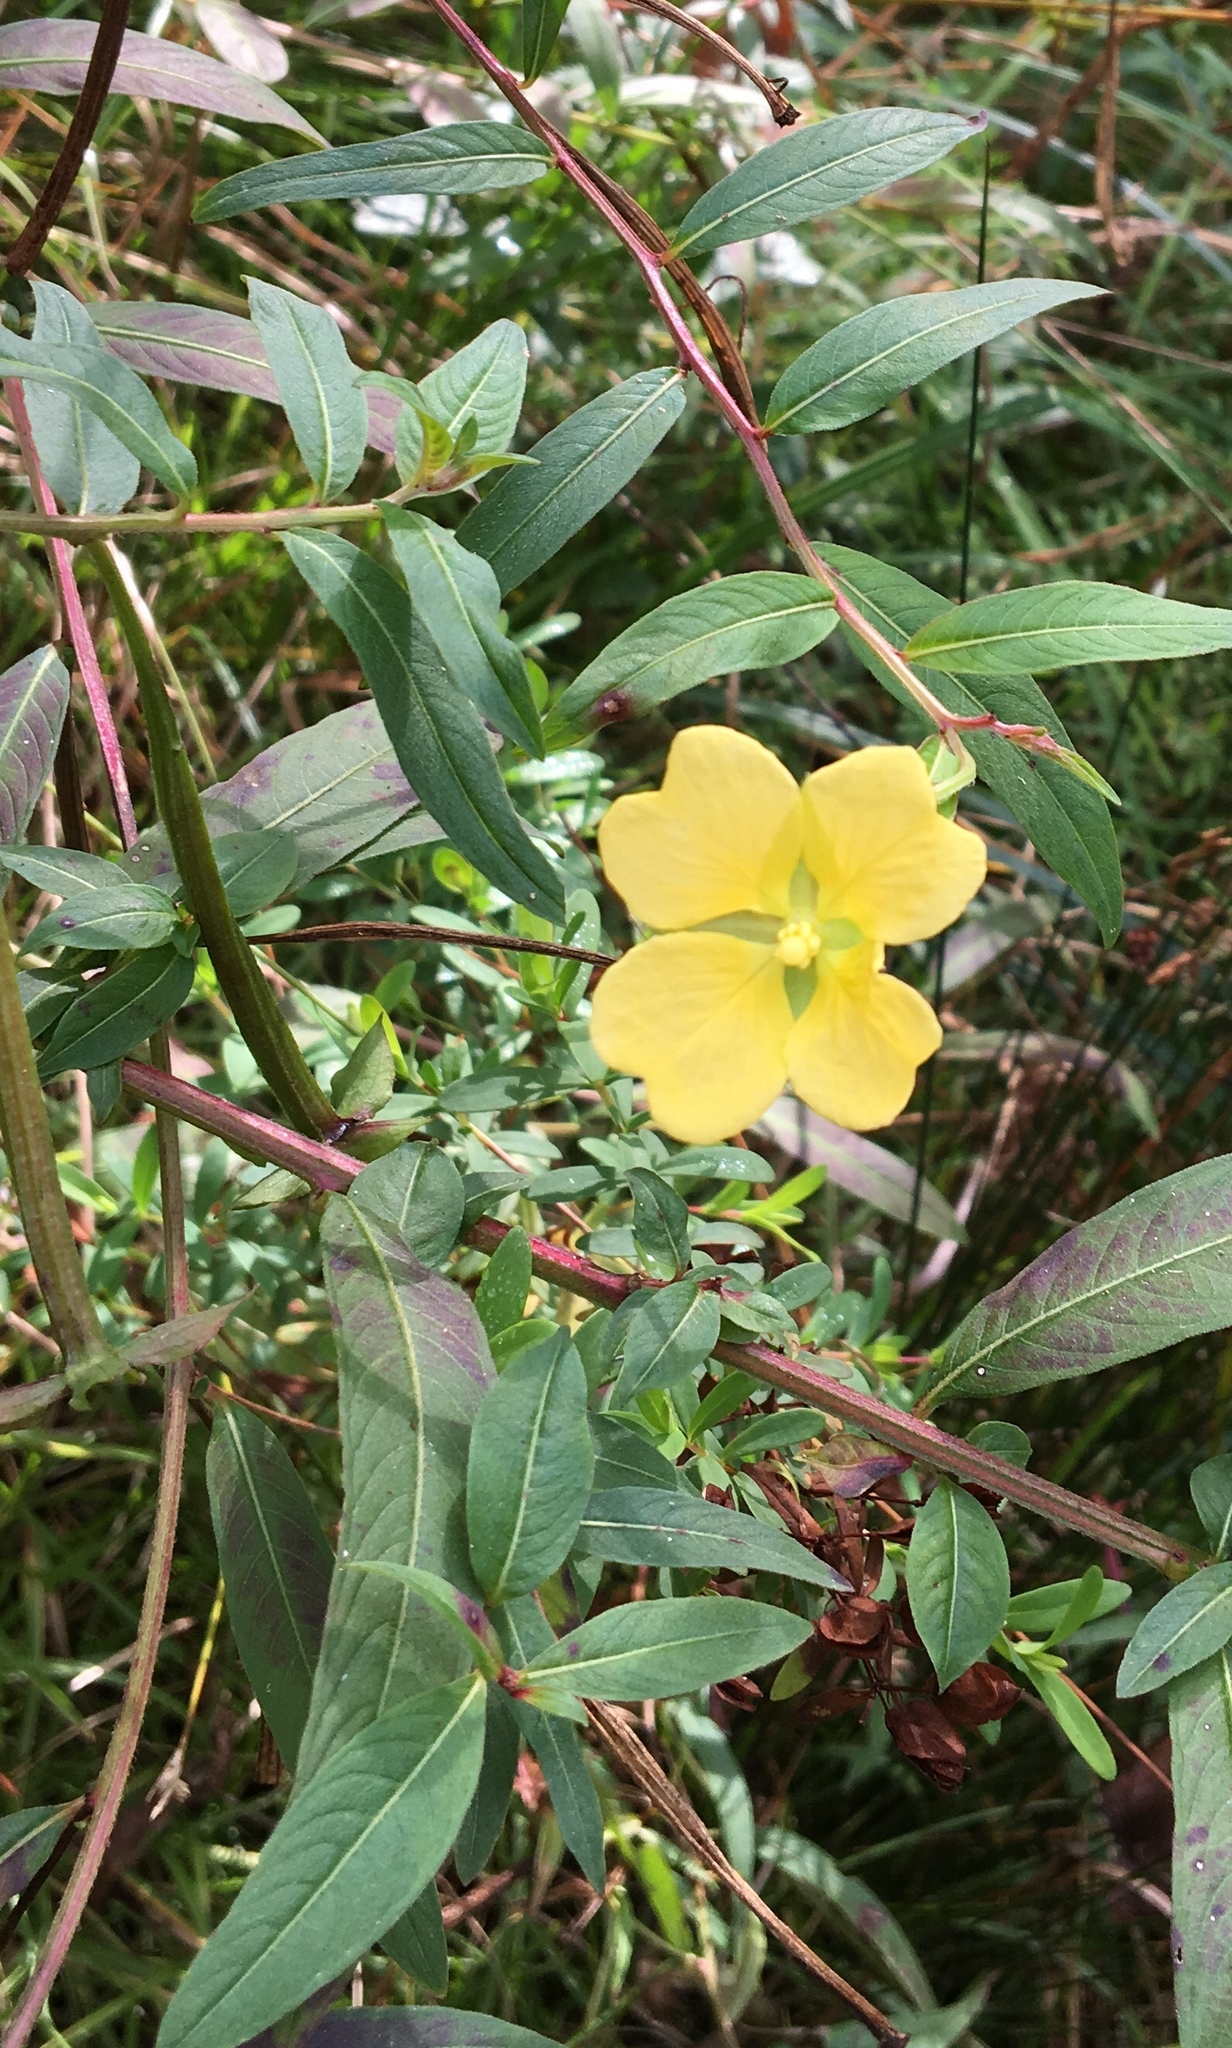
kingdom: Plantae
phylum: Tracheophyta
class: Magnoliopsida
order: Myrtales
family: Onagraceae
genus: Ludwigia
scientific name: Ludwigia octovalvis
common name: Water-primrose
